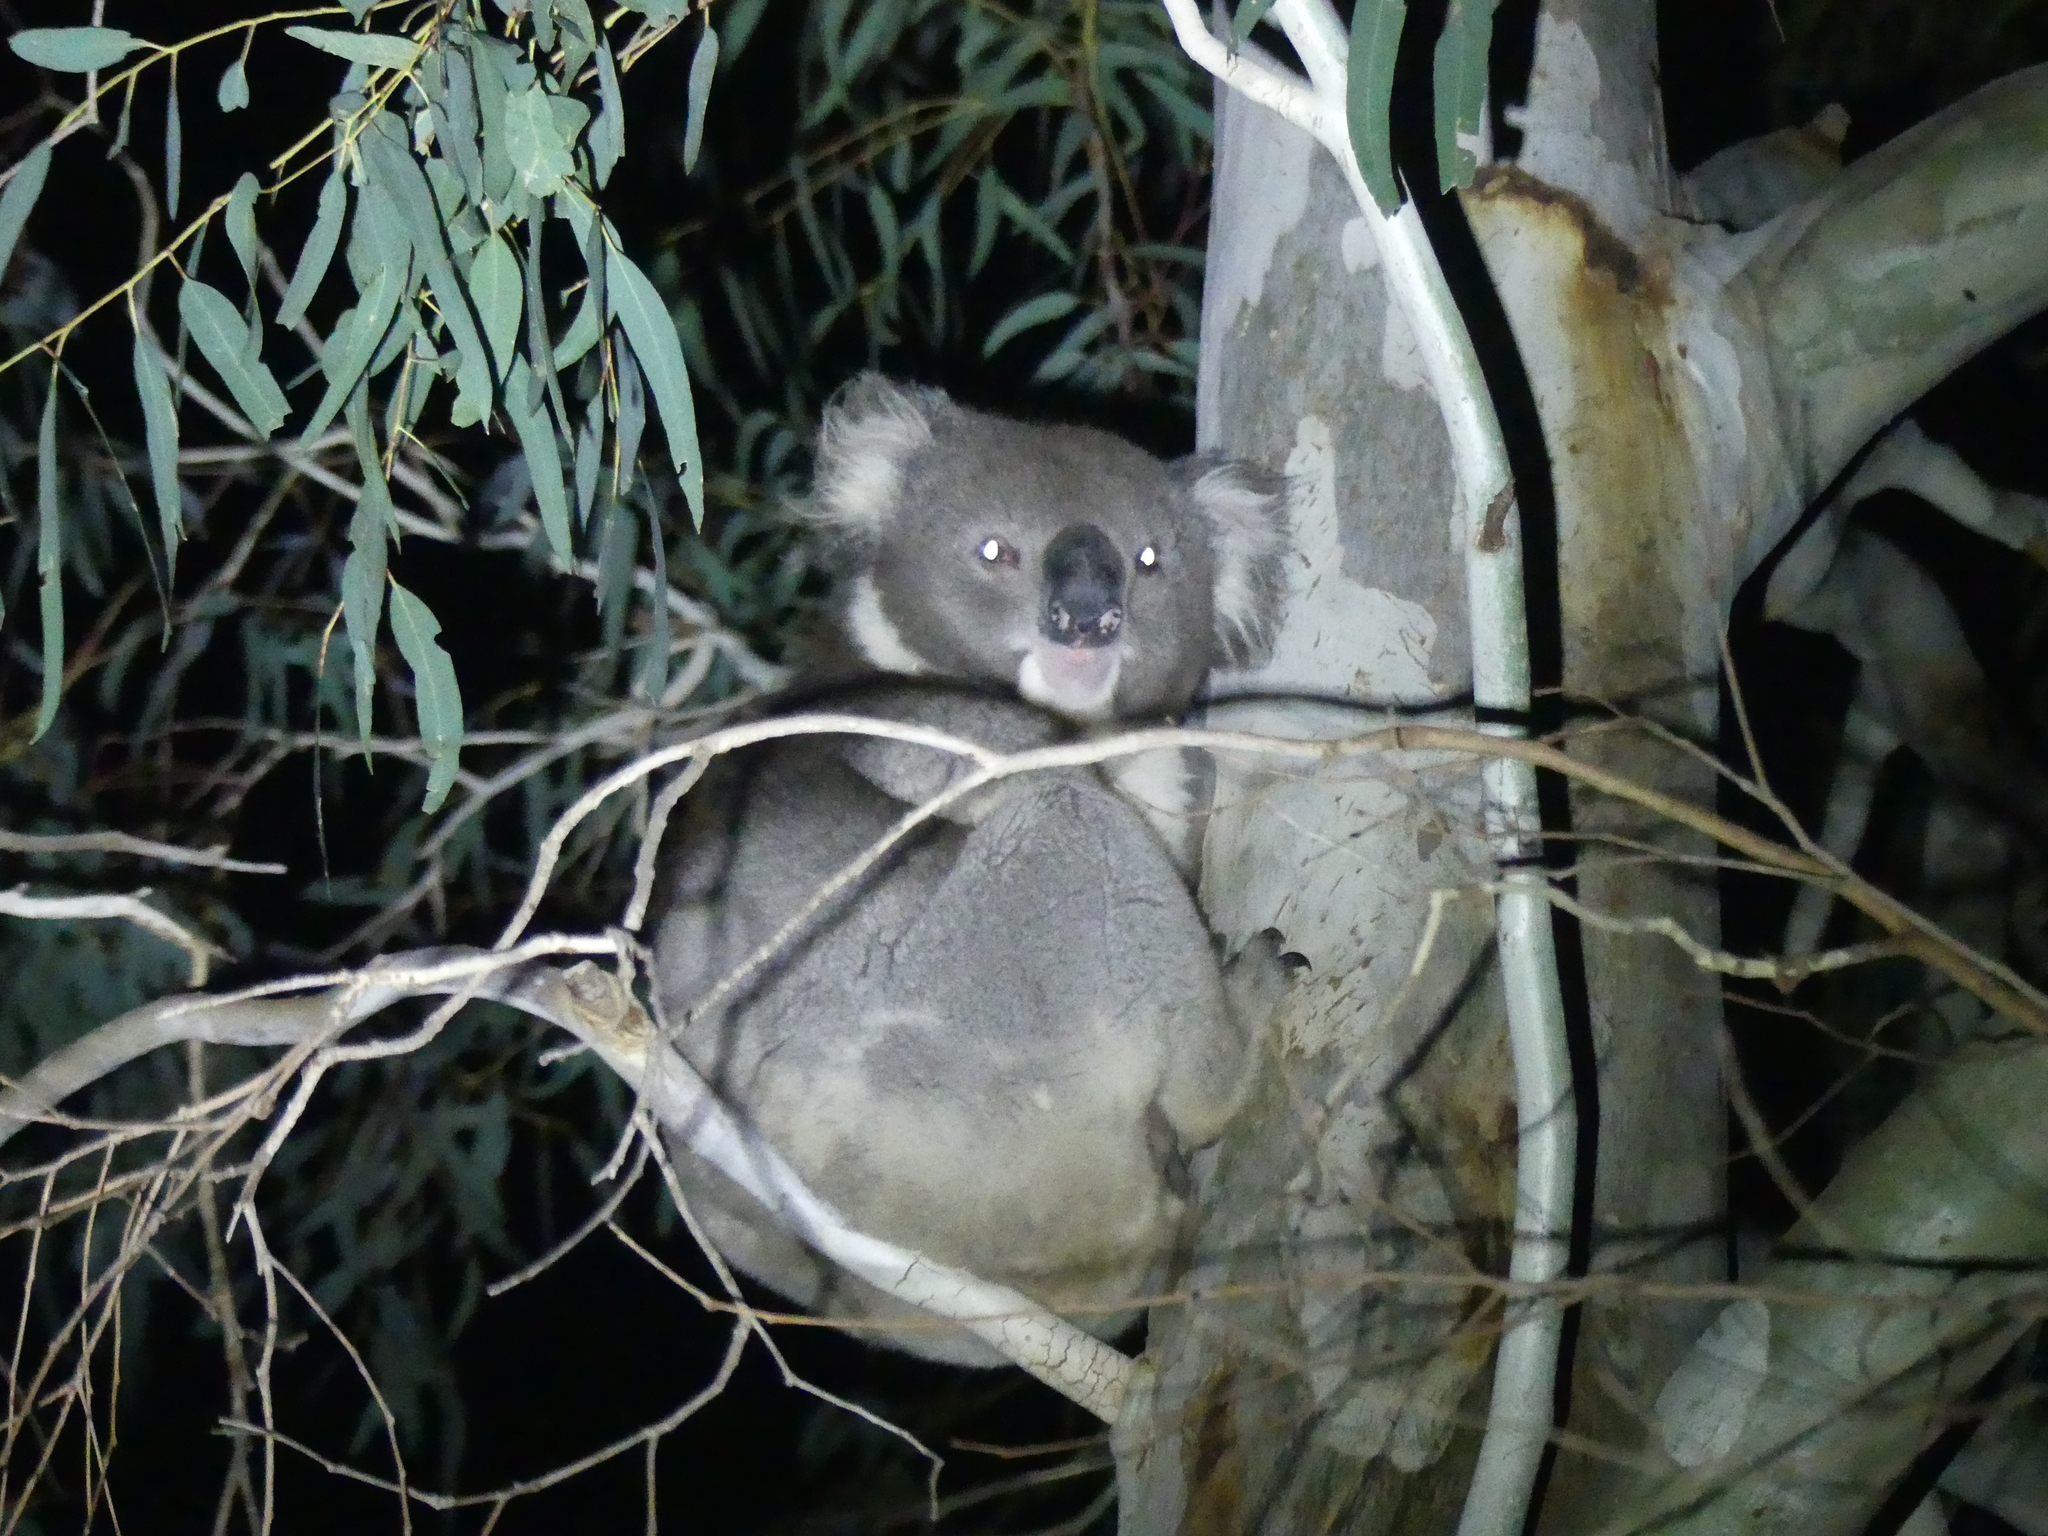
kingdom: Animalia
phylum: Chordata
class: Mammalia
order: Diprotodontia
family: Phascolarctidae
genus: Phascolarctos
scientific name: Phascolarctos cinereus
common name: Koala
